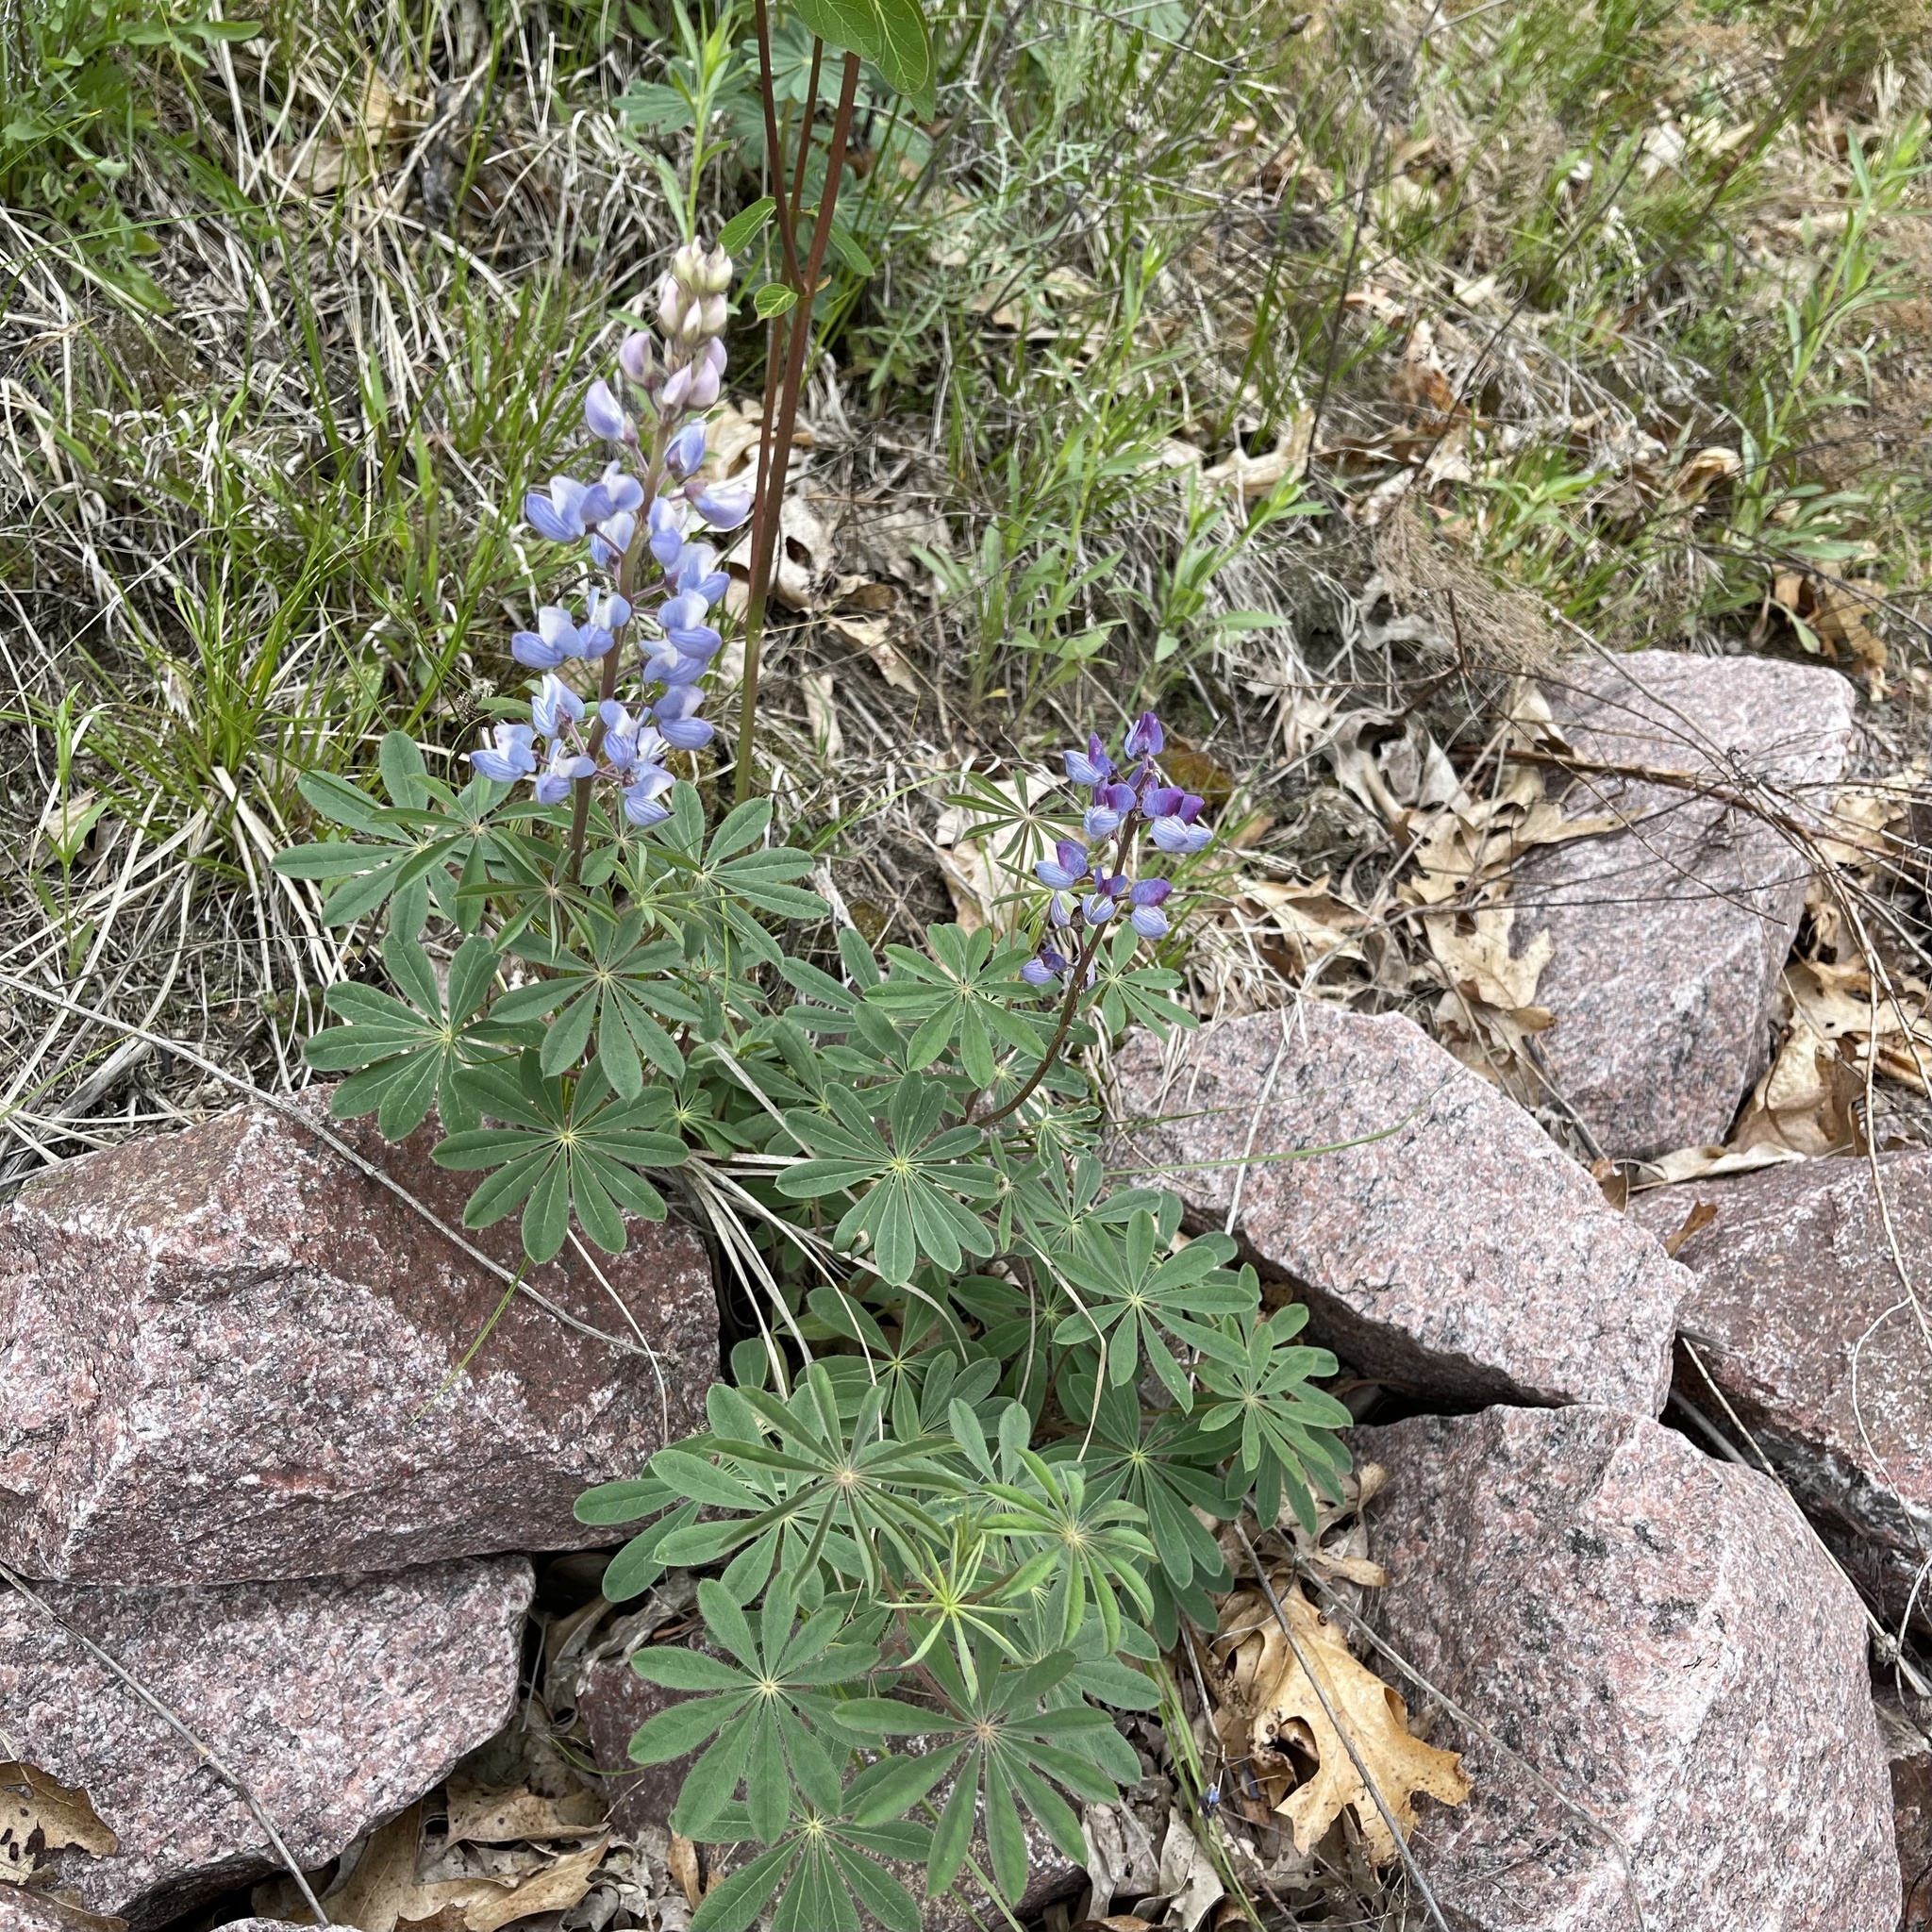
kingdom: Plantae
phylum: Tracheophyta
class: Magnoliopsida
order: Fabales
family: Fabaceae
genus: Lupinus
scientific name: Lupinus perennis
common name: Sundial lupine
